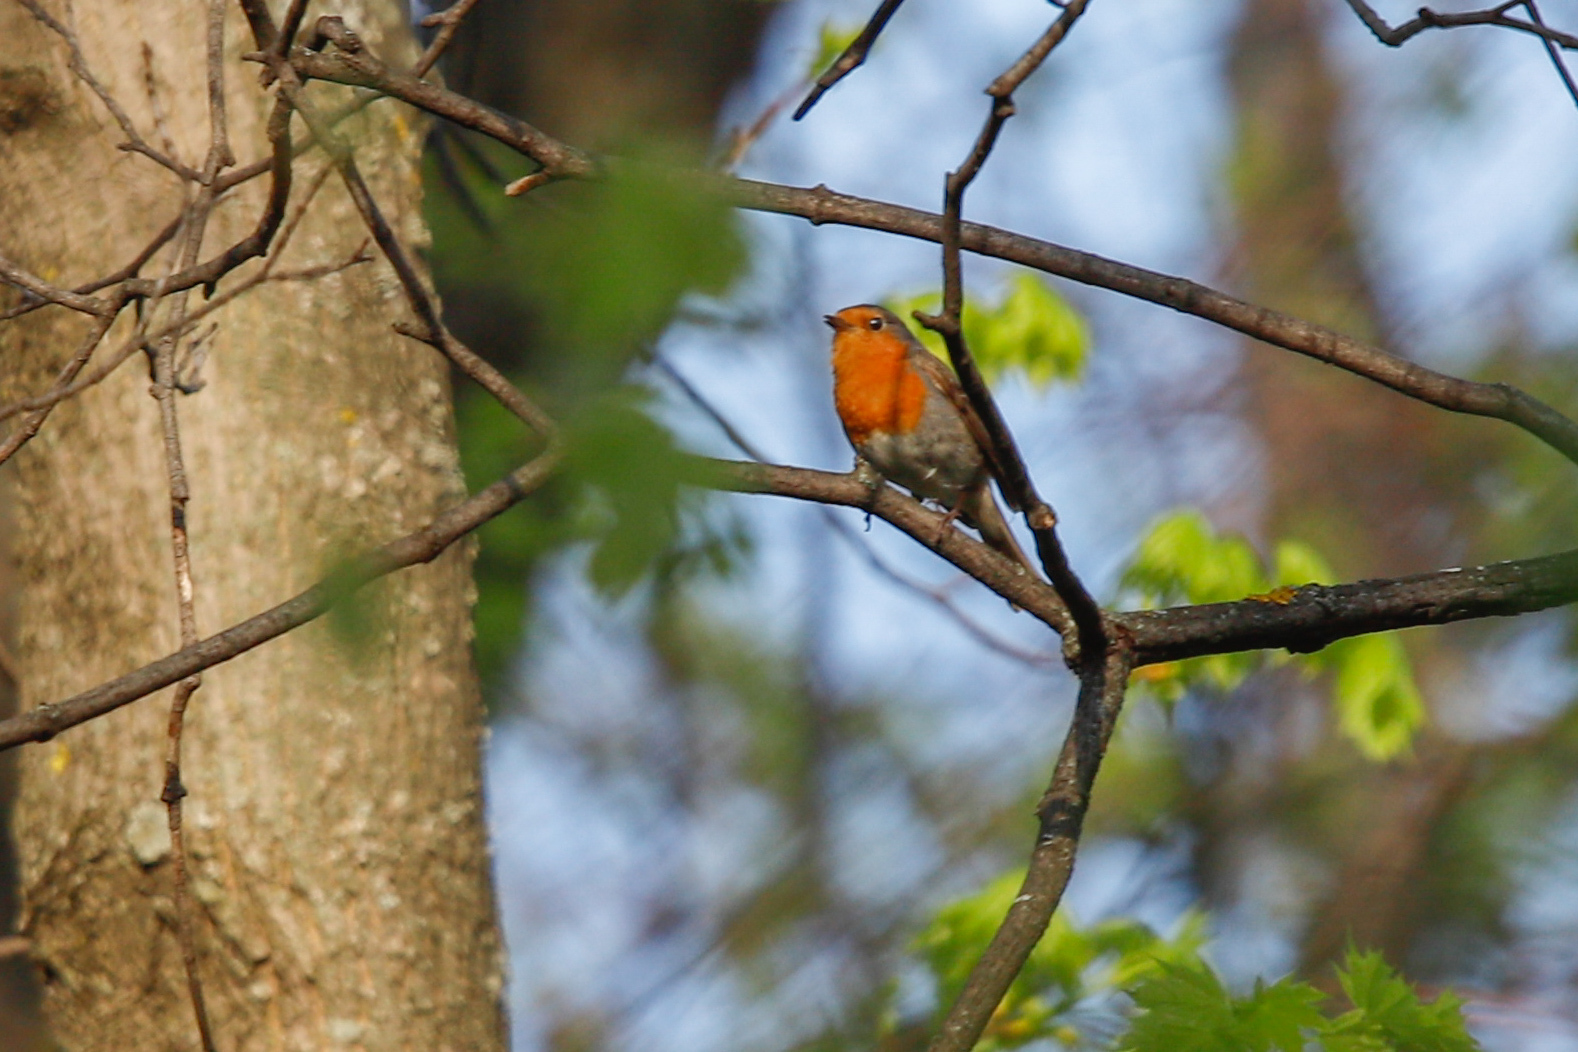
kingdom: Animalia
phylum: Chordata
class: Aves
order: Passeriformes
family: Muscicapidae
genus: Erithacus
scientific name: Erithacus rubecula
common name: European robin
